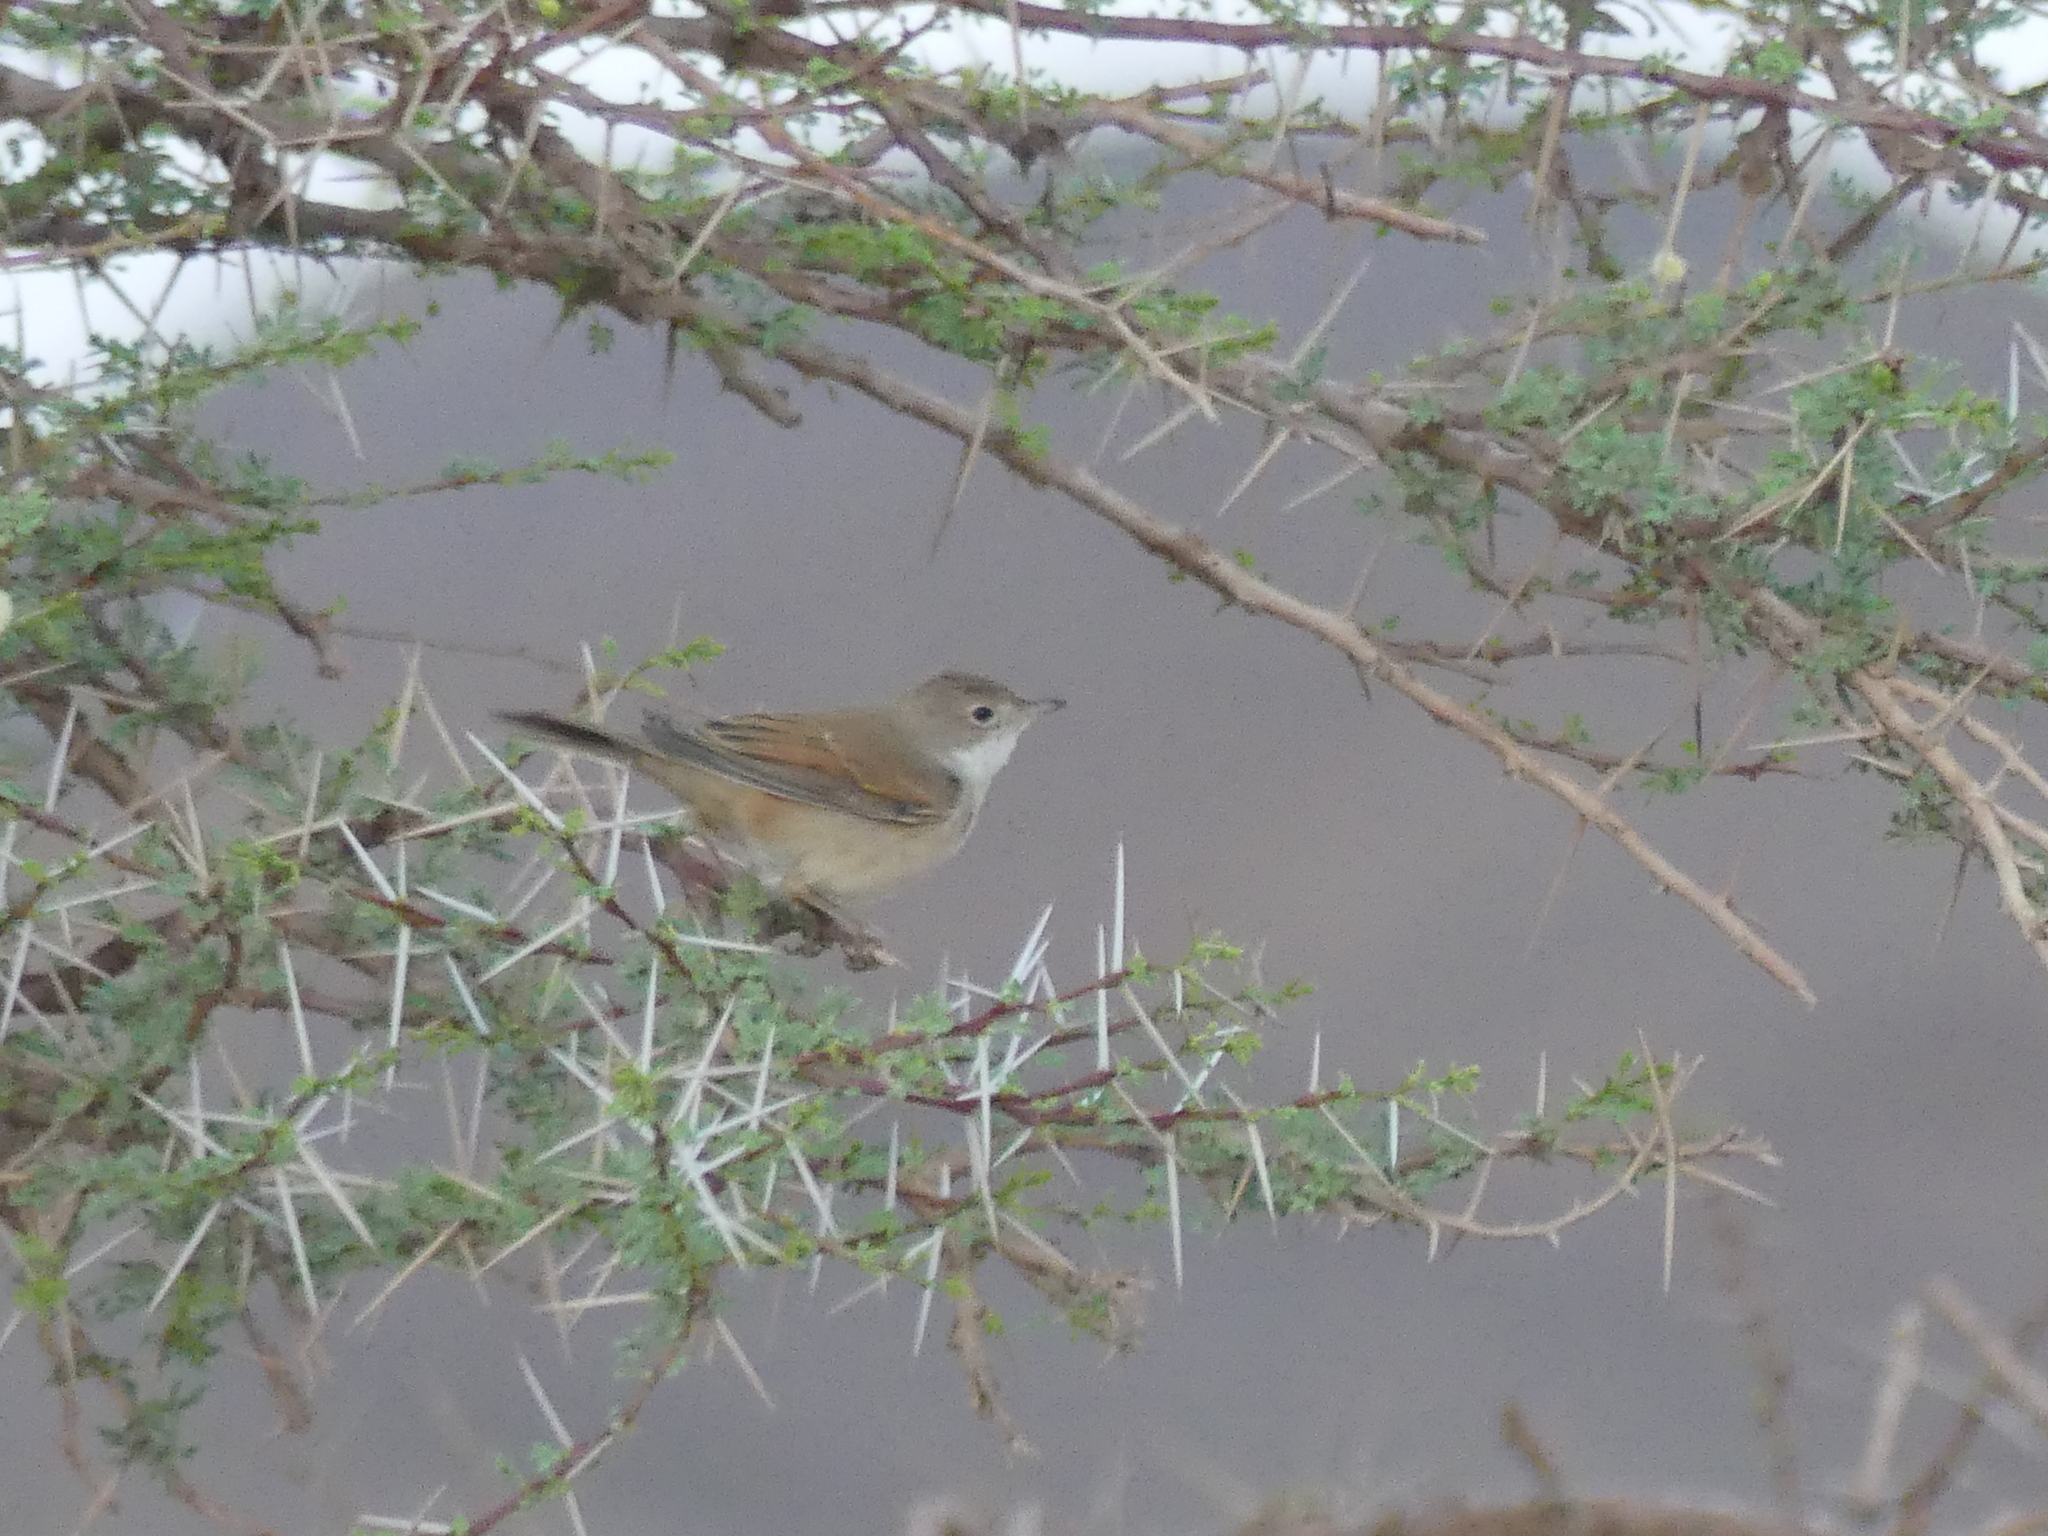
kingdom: Animalia
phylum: Chordata
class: Aves
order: Passeriformes
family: Sylviidae
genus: Sylvia
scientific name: Sylvia communis
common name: Common whitethroat
